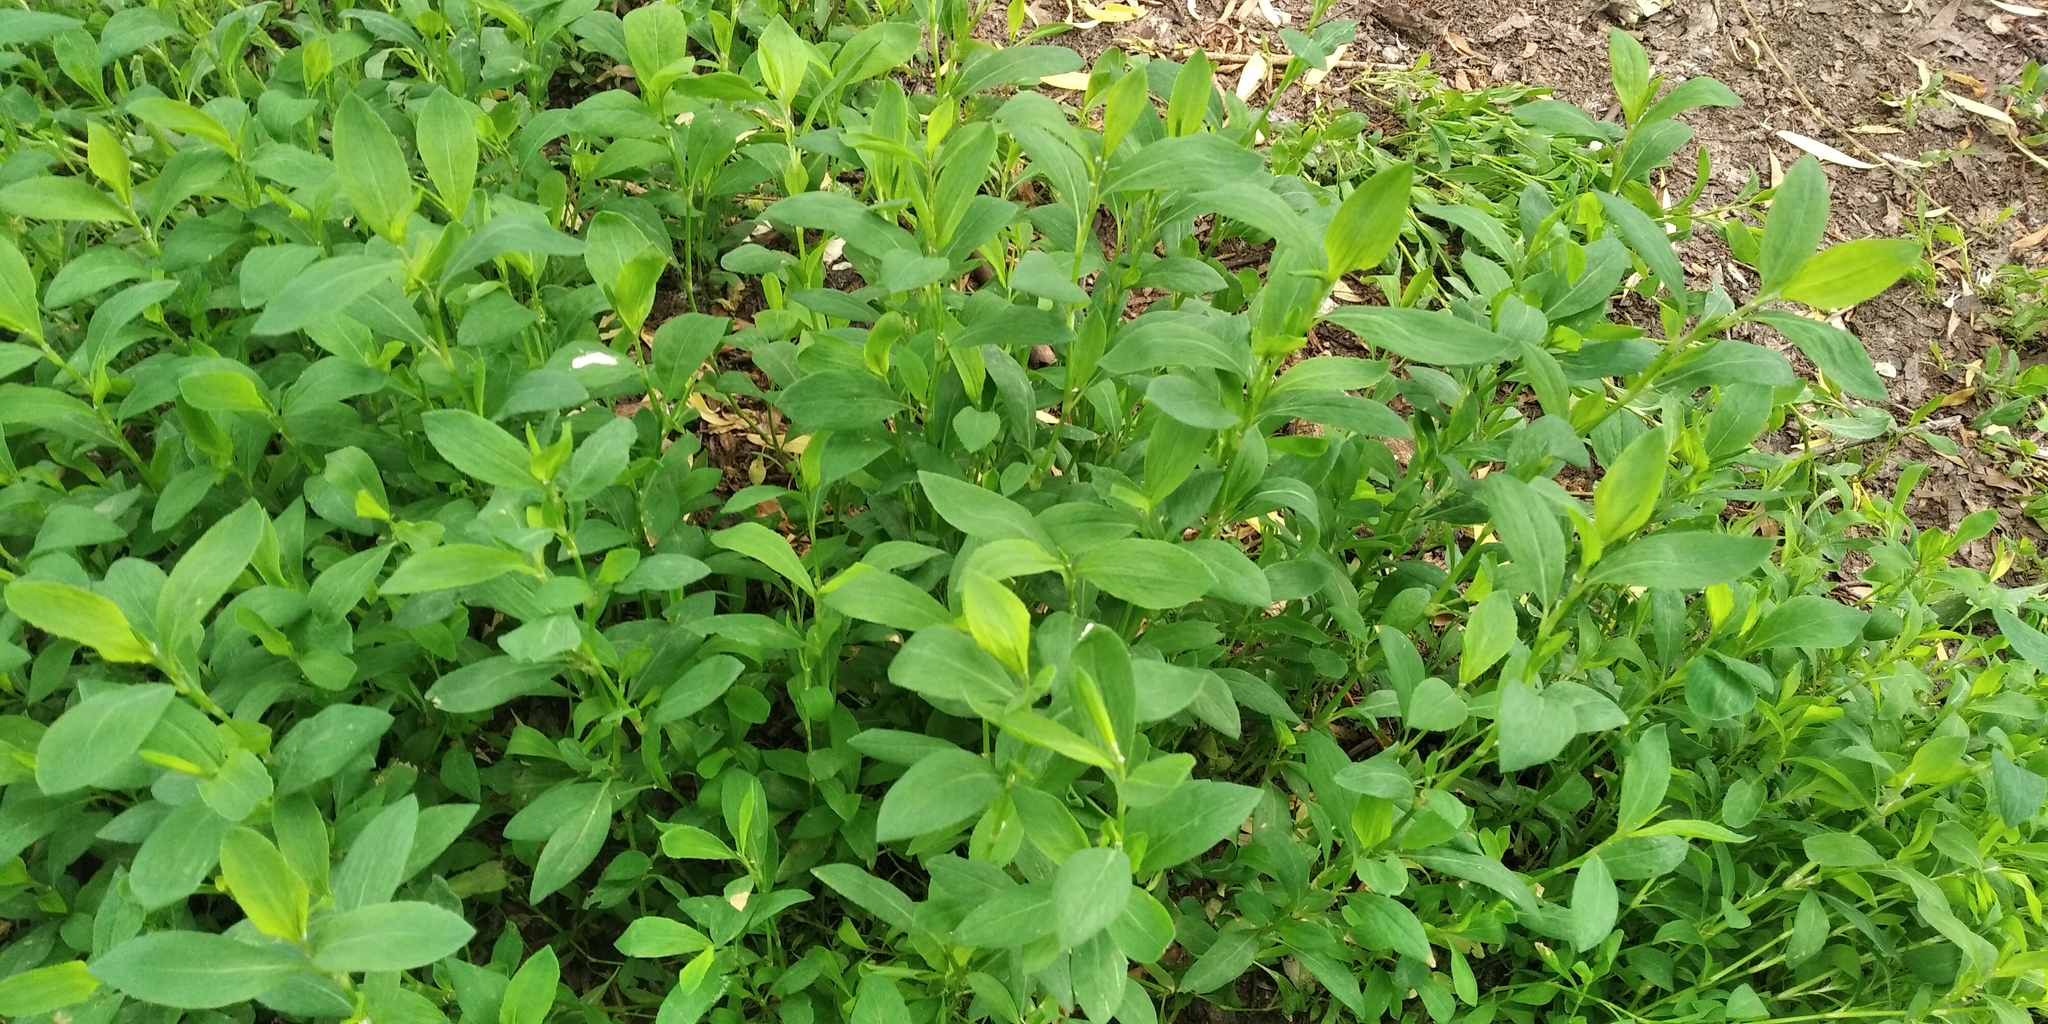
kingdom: Plantae
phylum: Tracheophyta
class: Magnoliopsida
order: Caryophyllales
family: Polygonaceae
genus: Polygonum
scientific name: Polygonum aviculare
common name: Prostrate knotweed
